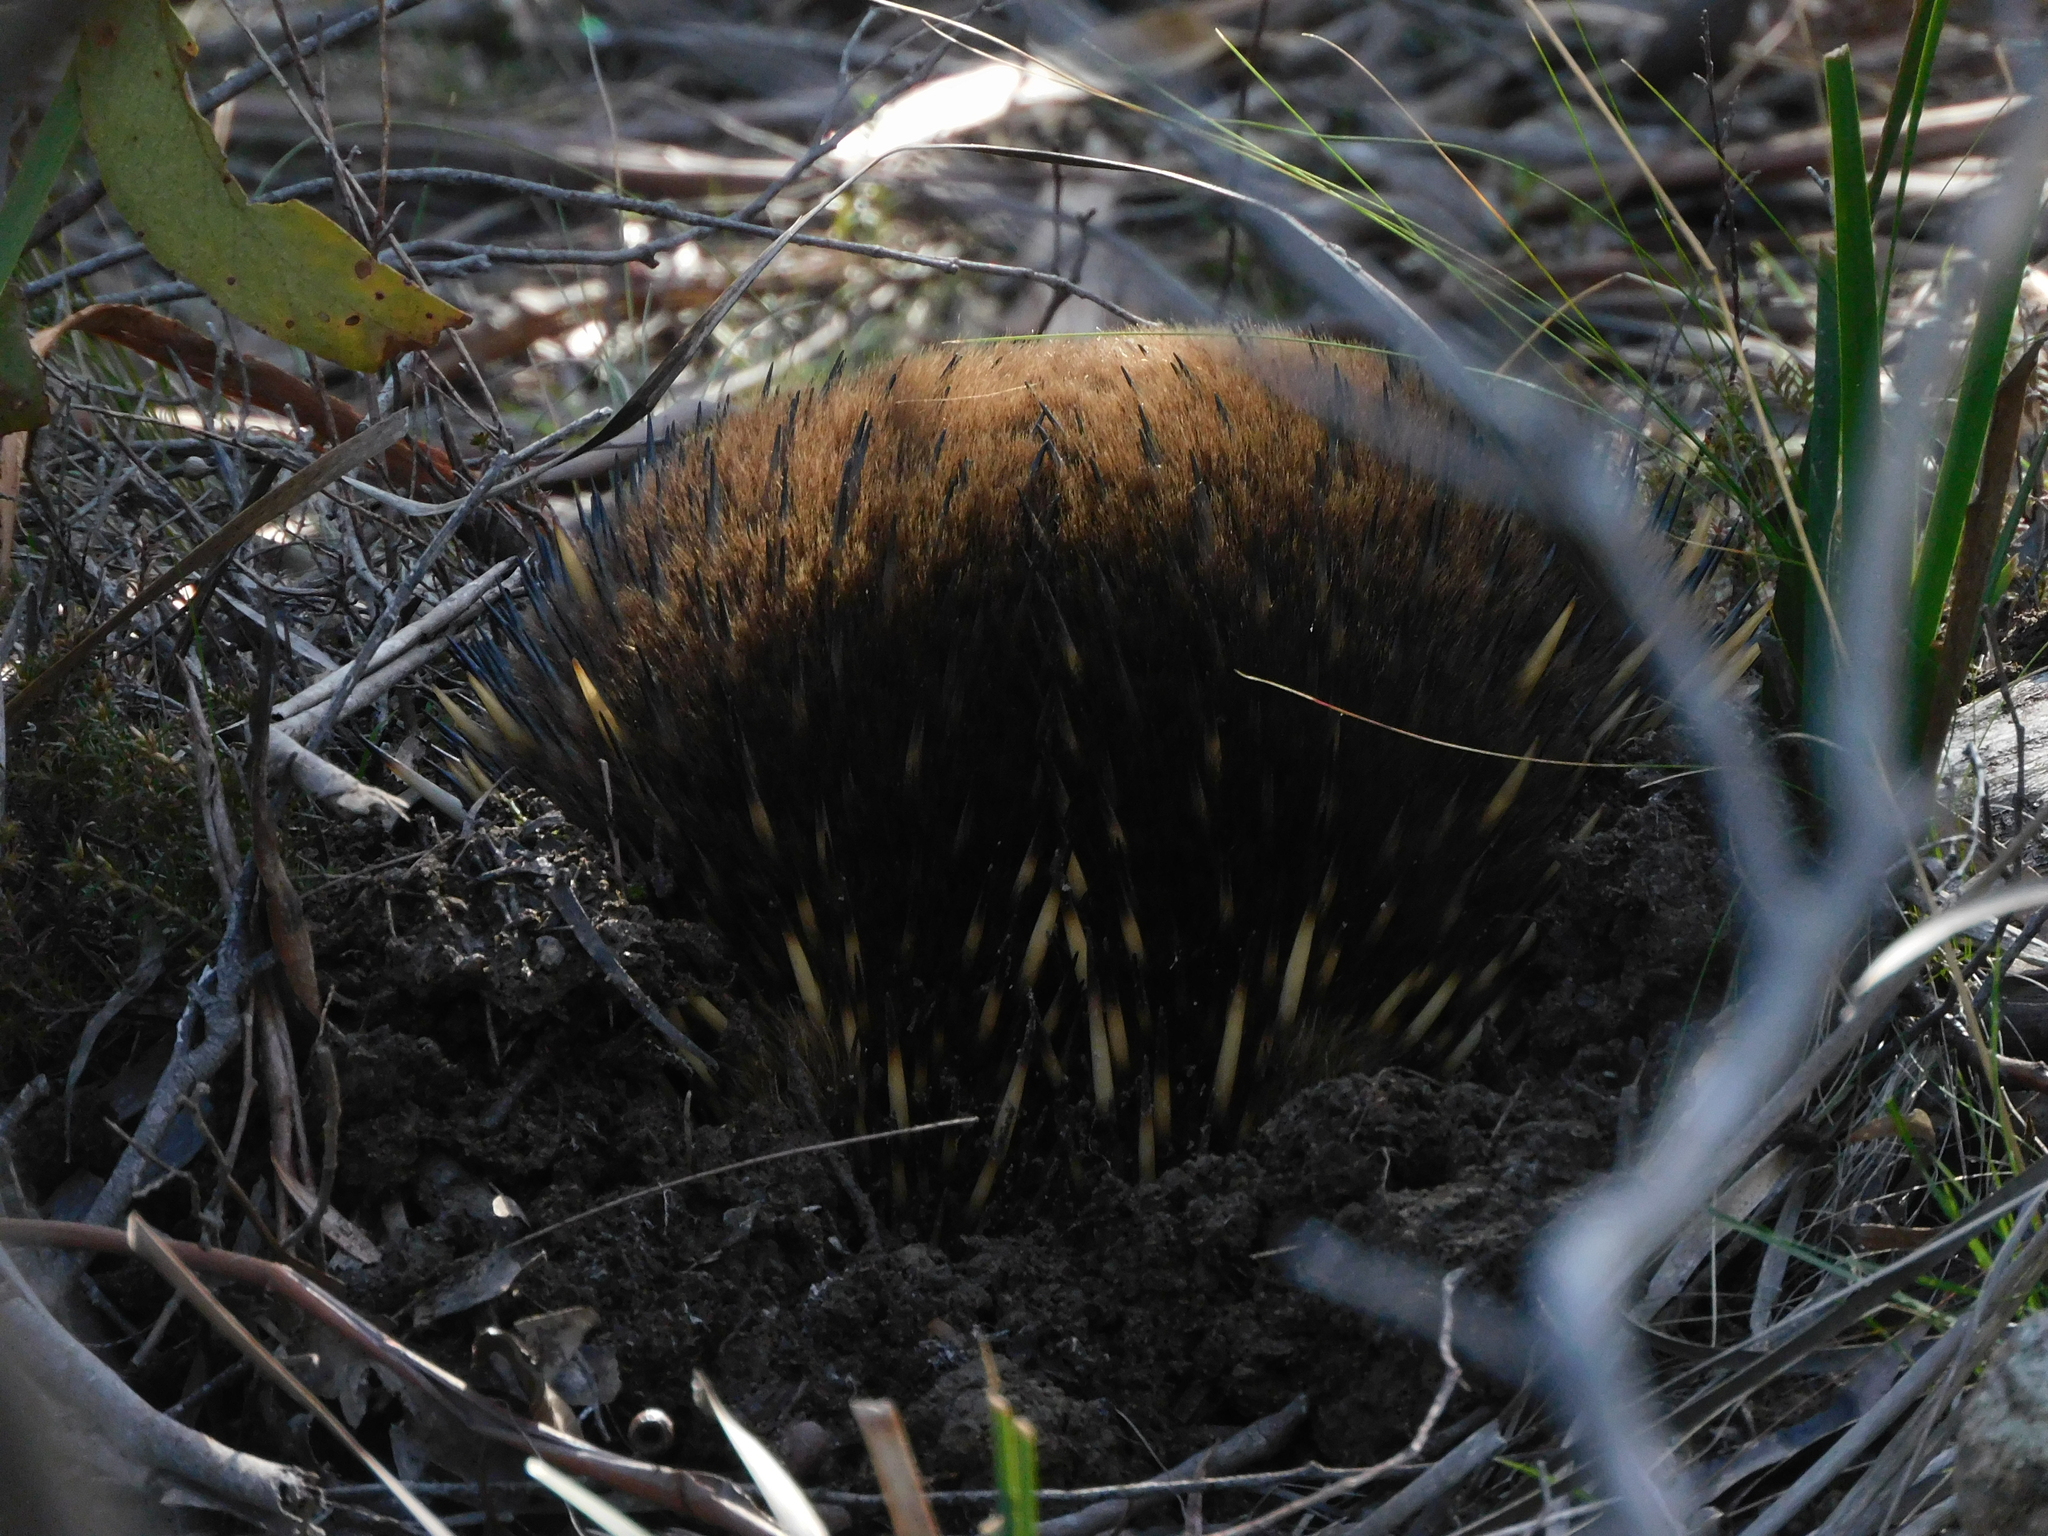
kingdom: Animalia
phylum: Chordata
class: Mammalia
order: Monotremata
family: Tachyglossidae
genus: Tachyglossus
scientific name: Tachyglossus aculeatus
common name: Short-beaked echidna
